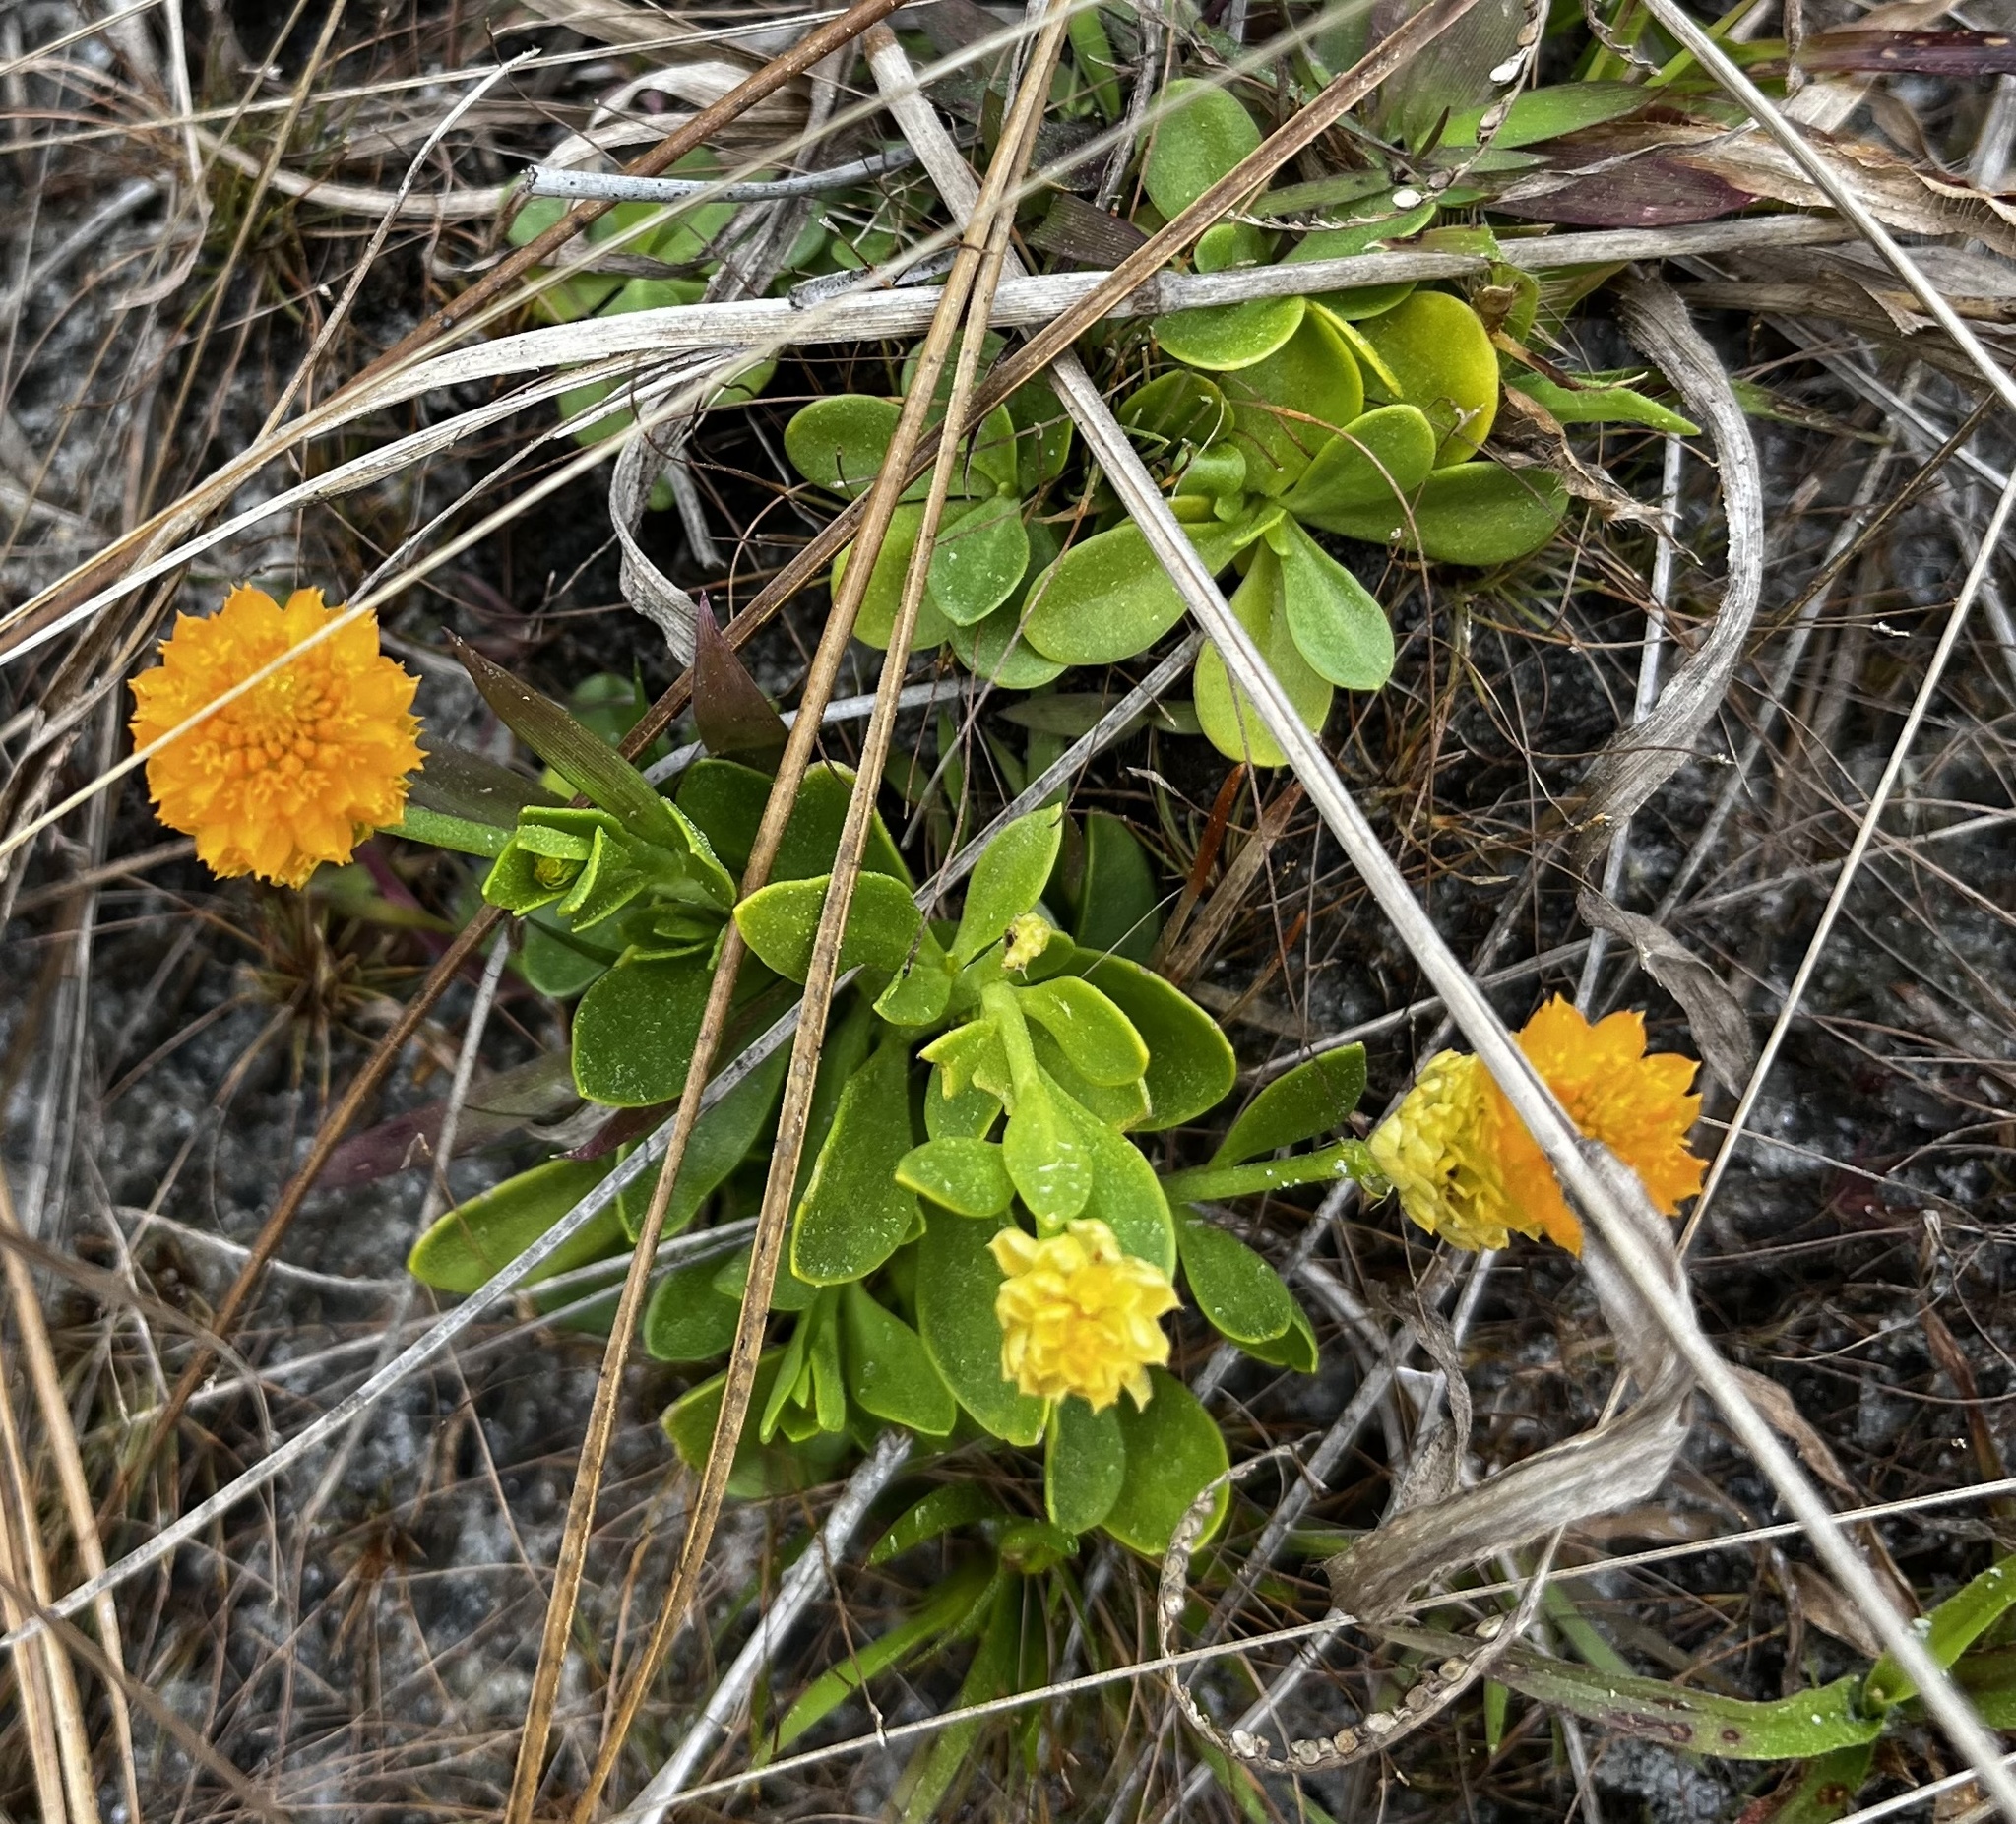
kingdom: Plantae
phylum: Tracheophyta
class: Magnoliopsida
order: Fabales
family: Polygalaceae
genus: Polygala
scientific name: Polygala lutea
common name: Orange milkwort
